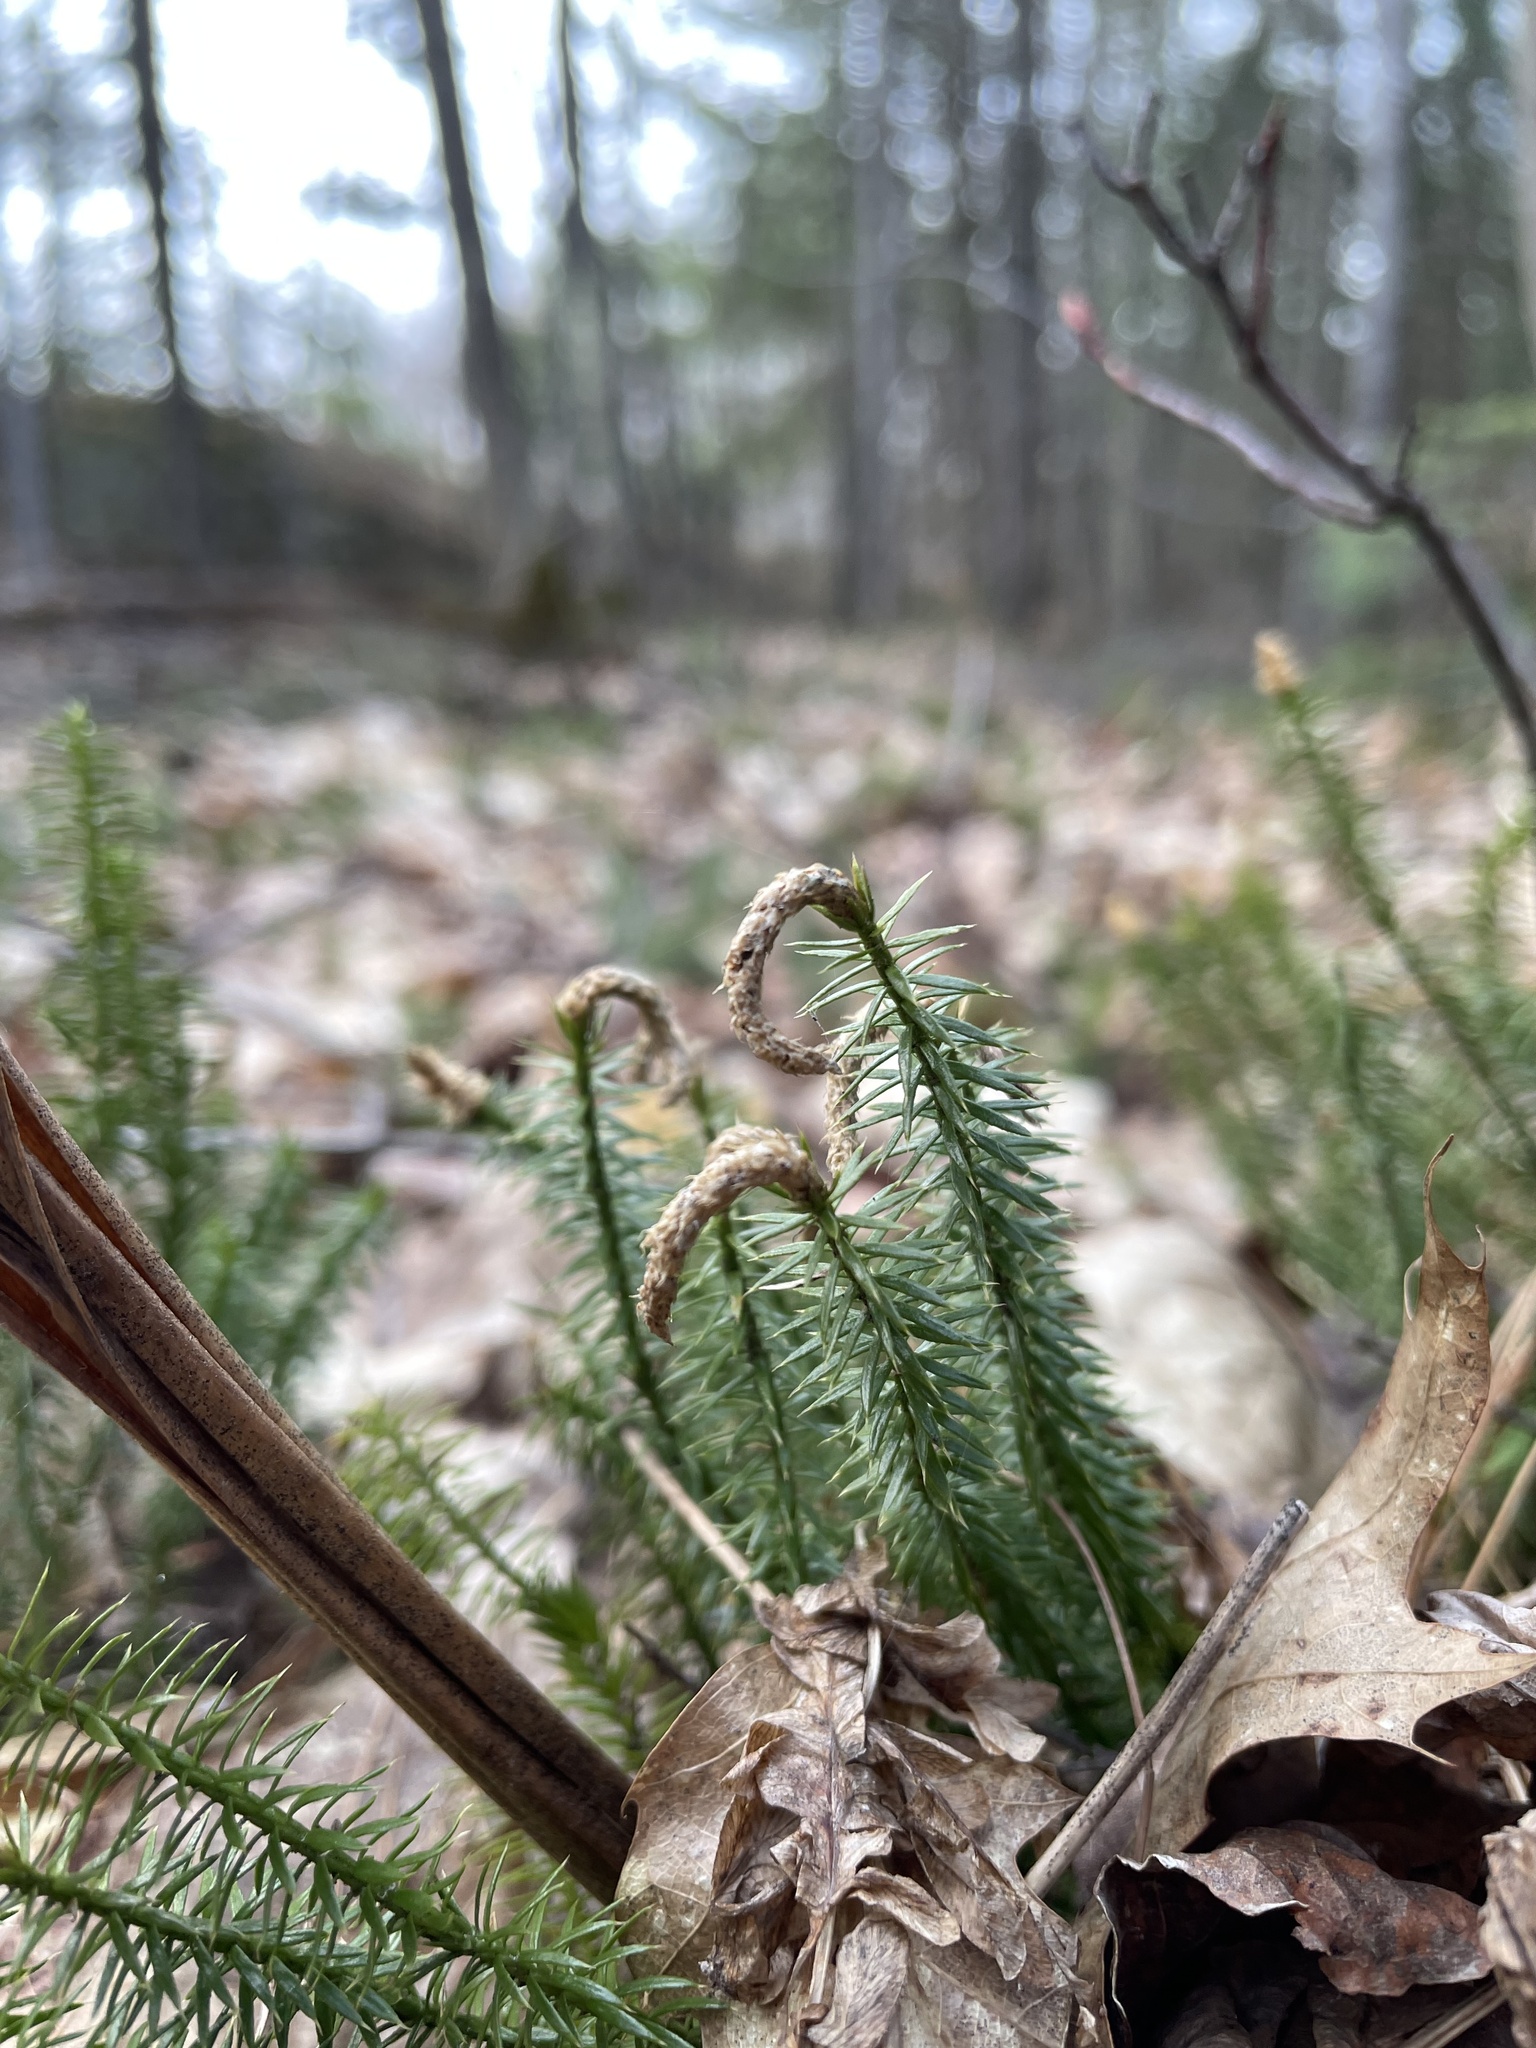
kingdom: Plantae
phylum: Tracheophyta
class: Lycopodiopsida
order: Lycopodiales
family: Lycopodiaceae
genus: Spinulum
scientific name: Spinulum annotinum
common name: Interrupted club-moss
